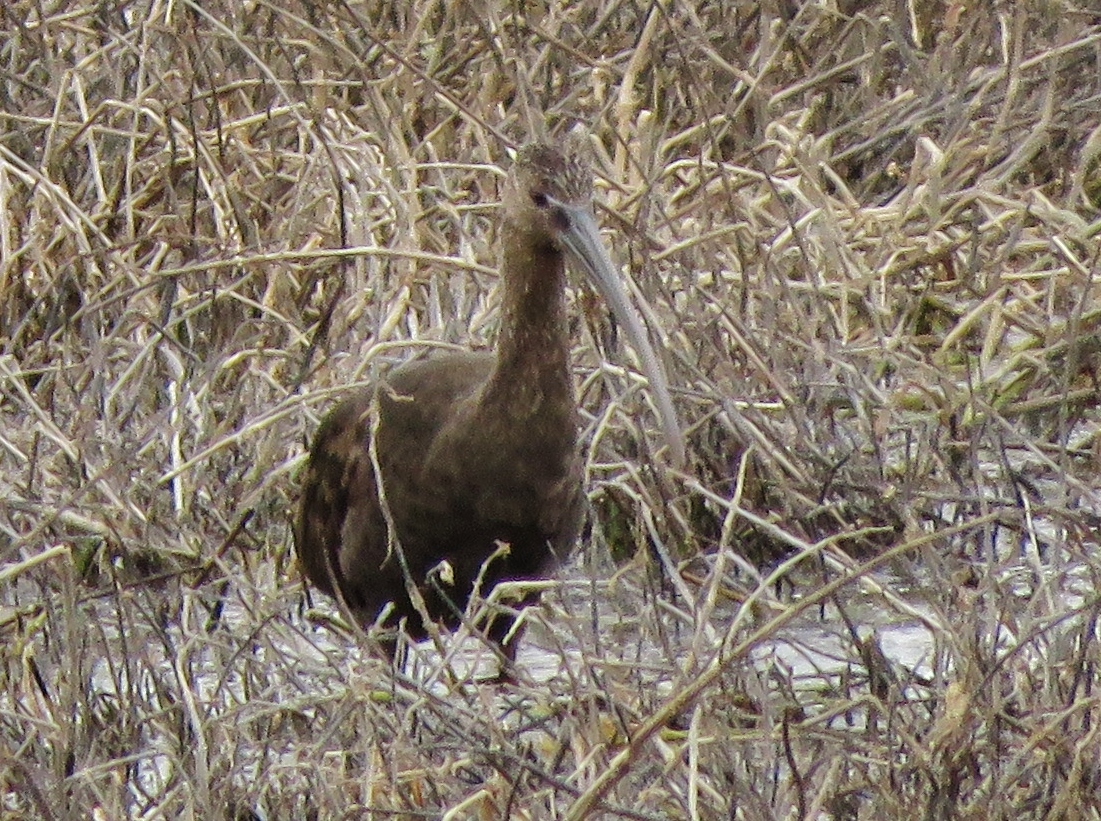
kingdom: Animalia
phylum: Chordata
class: Aves
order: Pelecaniformes
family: Threskiornithidae
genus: Plegadis
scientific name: Plegadis chihi
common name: White-faced ibis
